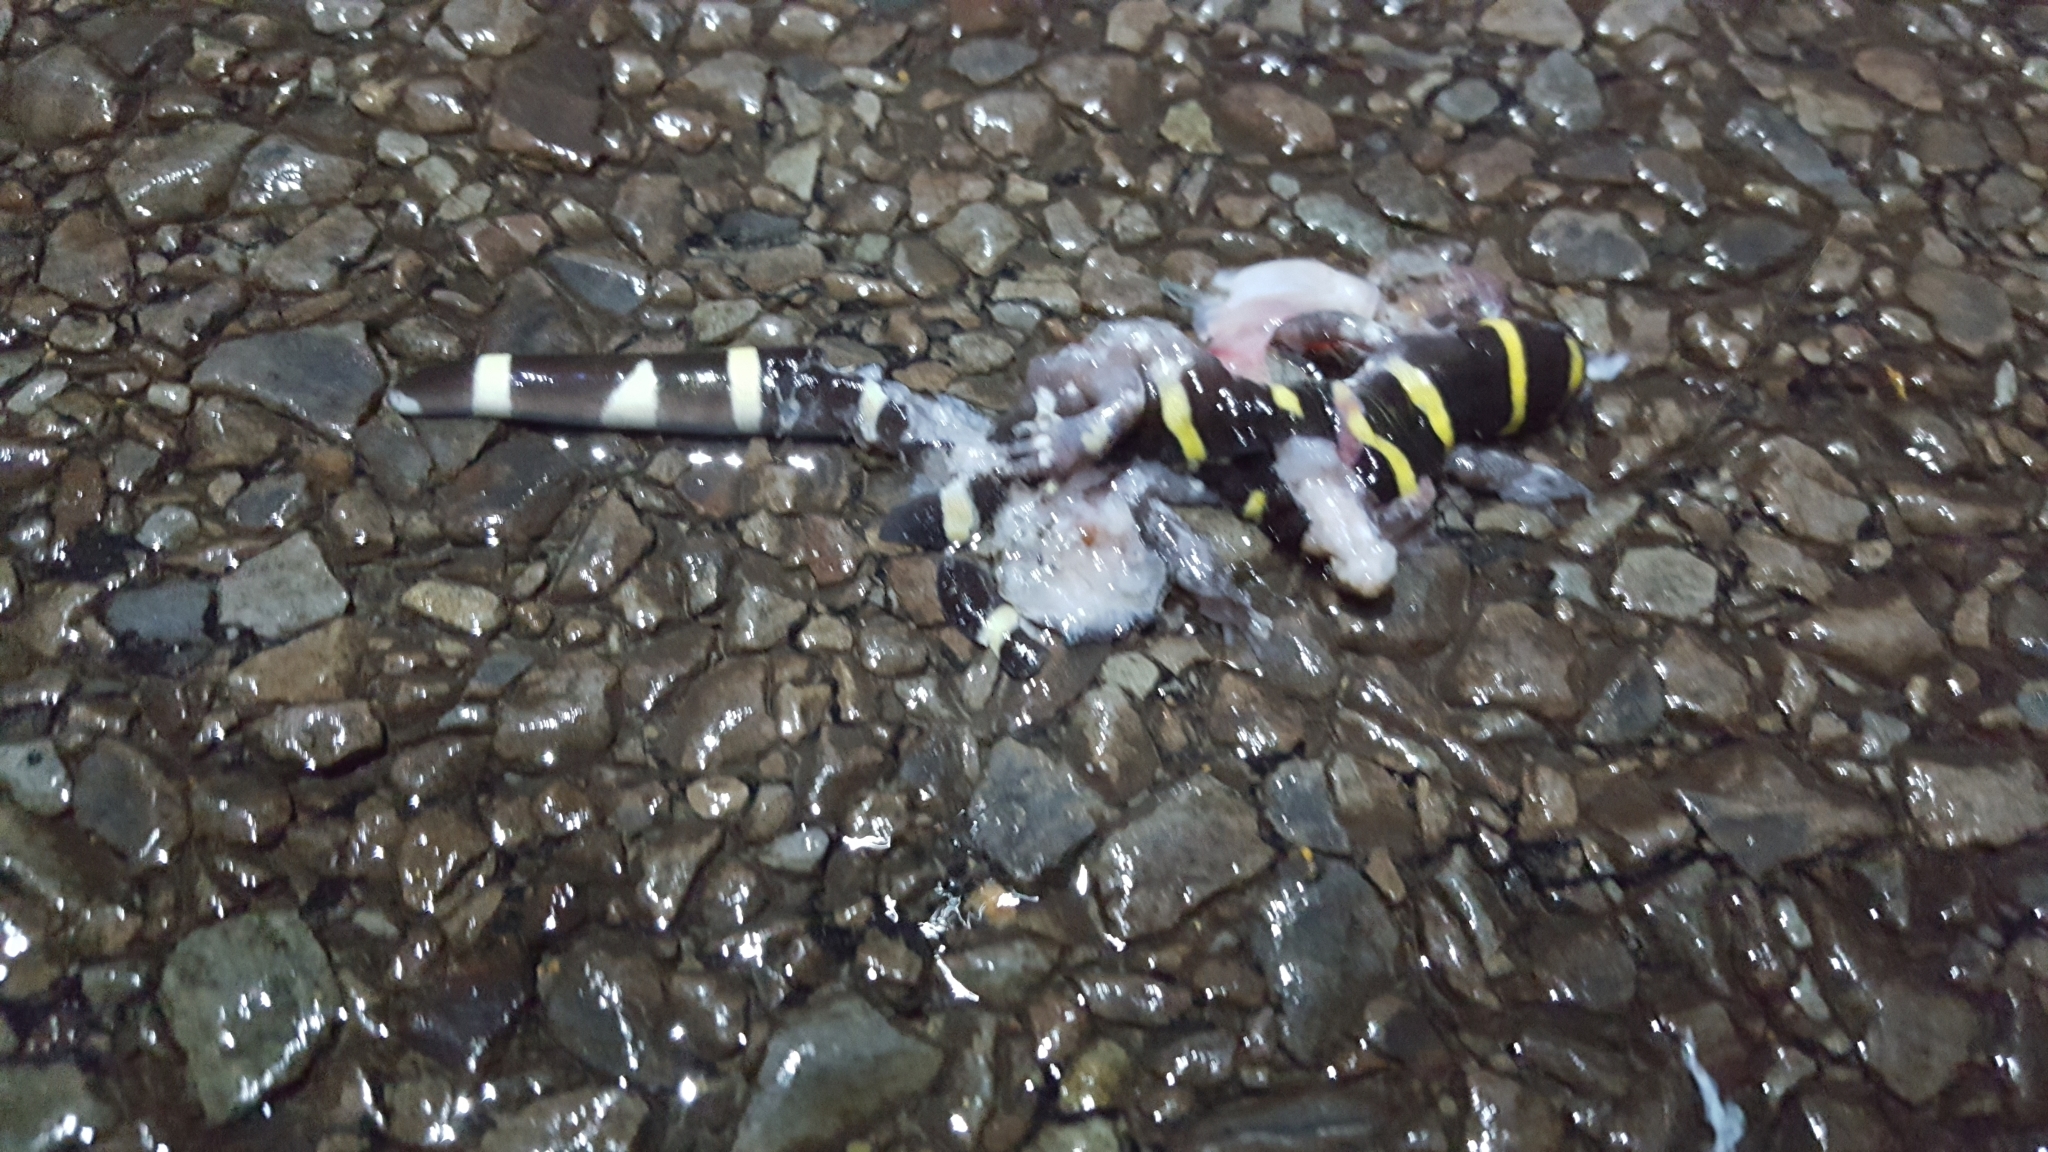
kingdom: Animalia
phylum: Chordata
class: Amphibia
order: Caudata
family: Ambystomatidae
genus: Ambystoma
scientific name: Ambystoma annulatum
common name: Ringed salamander
